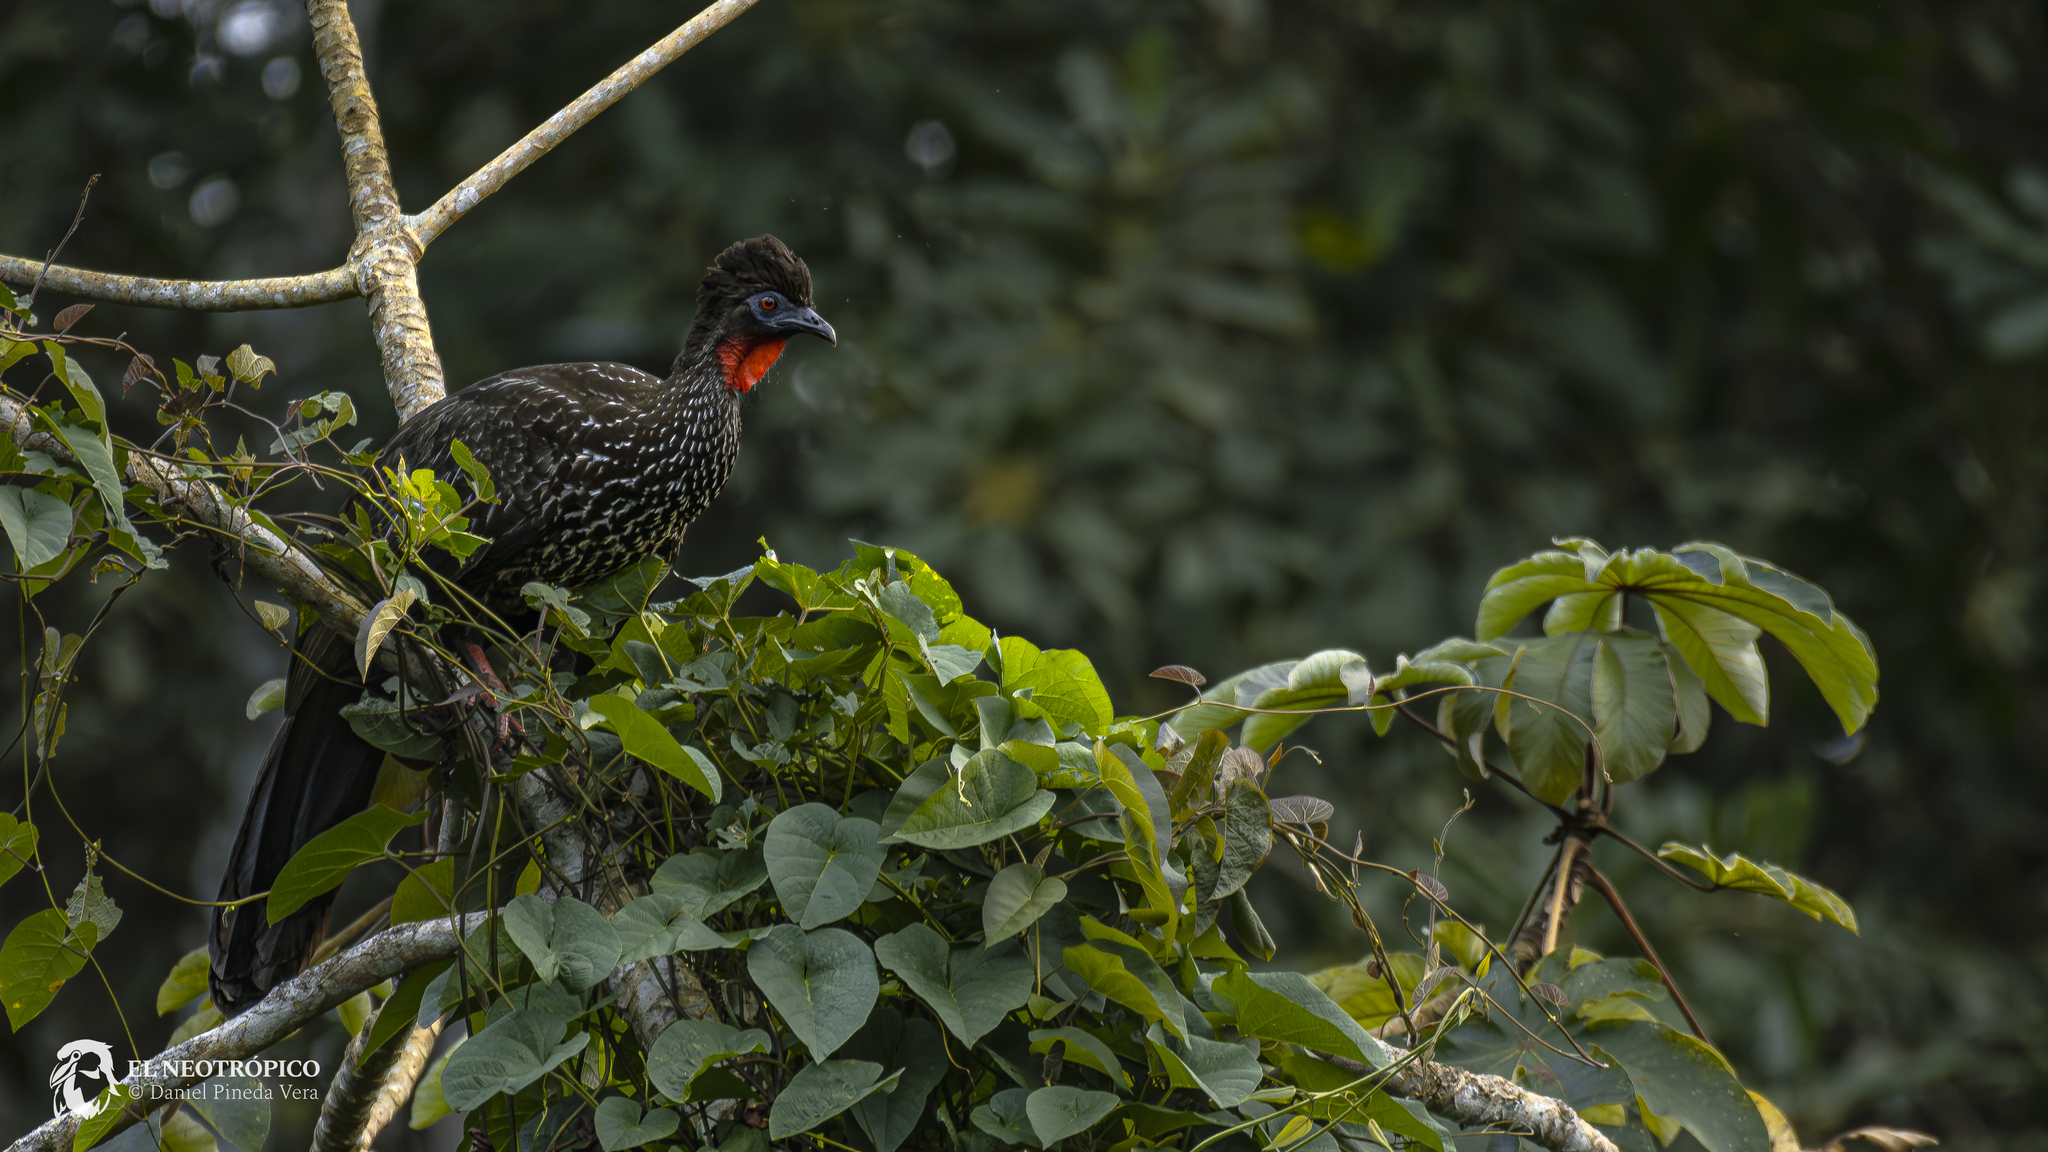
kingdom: Animalia
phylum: Chordata
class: Aves
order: Galliformes
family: Cracidae
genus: Penelope
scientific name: Penelope purpurascens
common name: Crested guan
